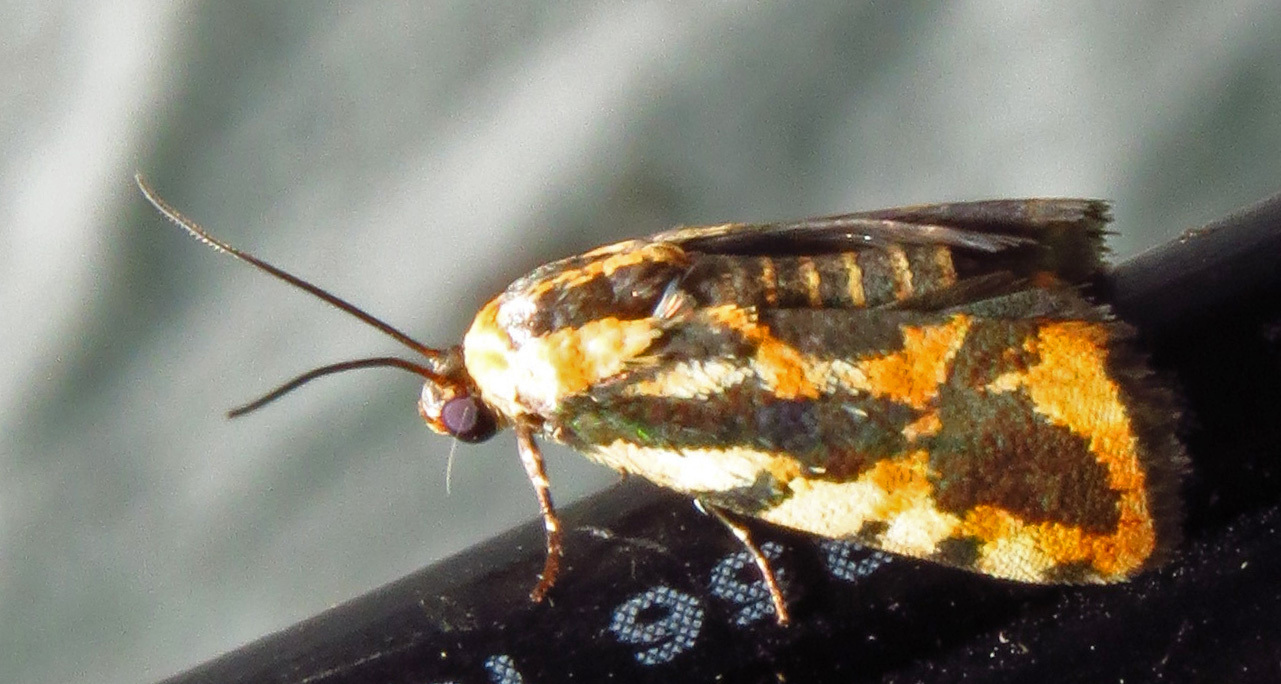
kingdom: Animalia
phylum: Arthropoda
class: Insecta
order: Lepidoptera
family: Noctuidae
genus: Acontia
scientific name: Acontia leo
